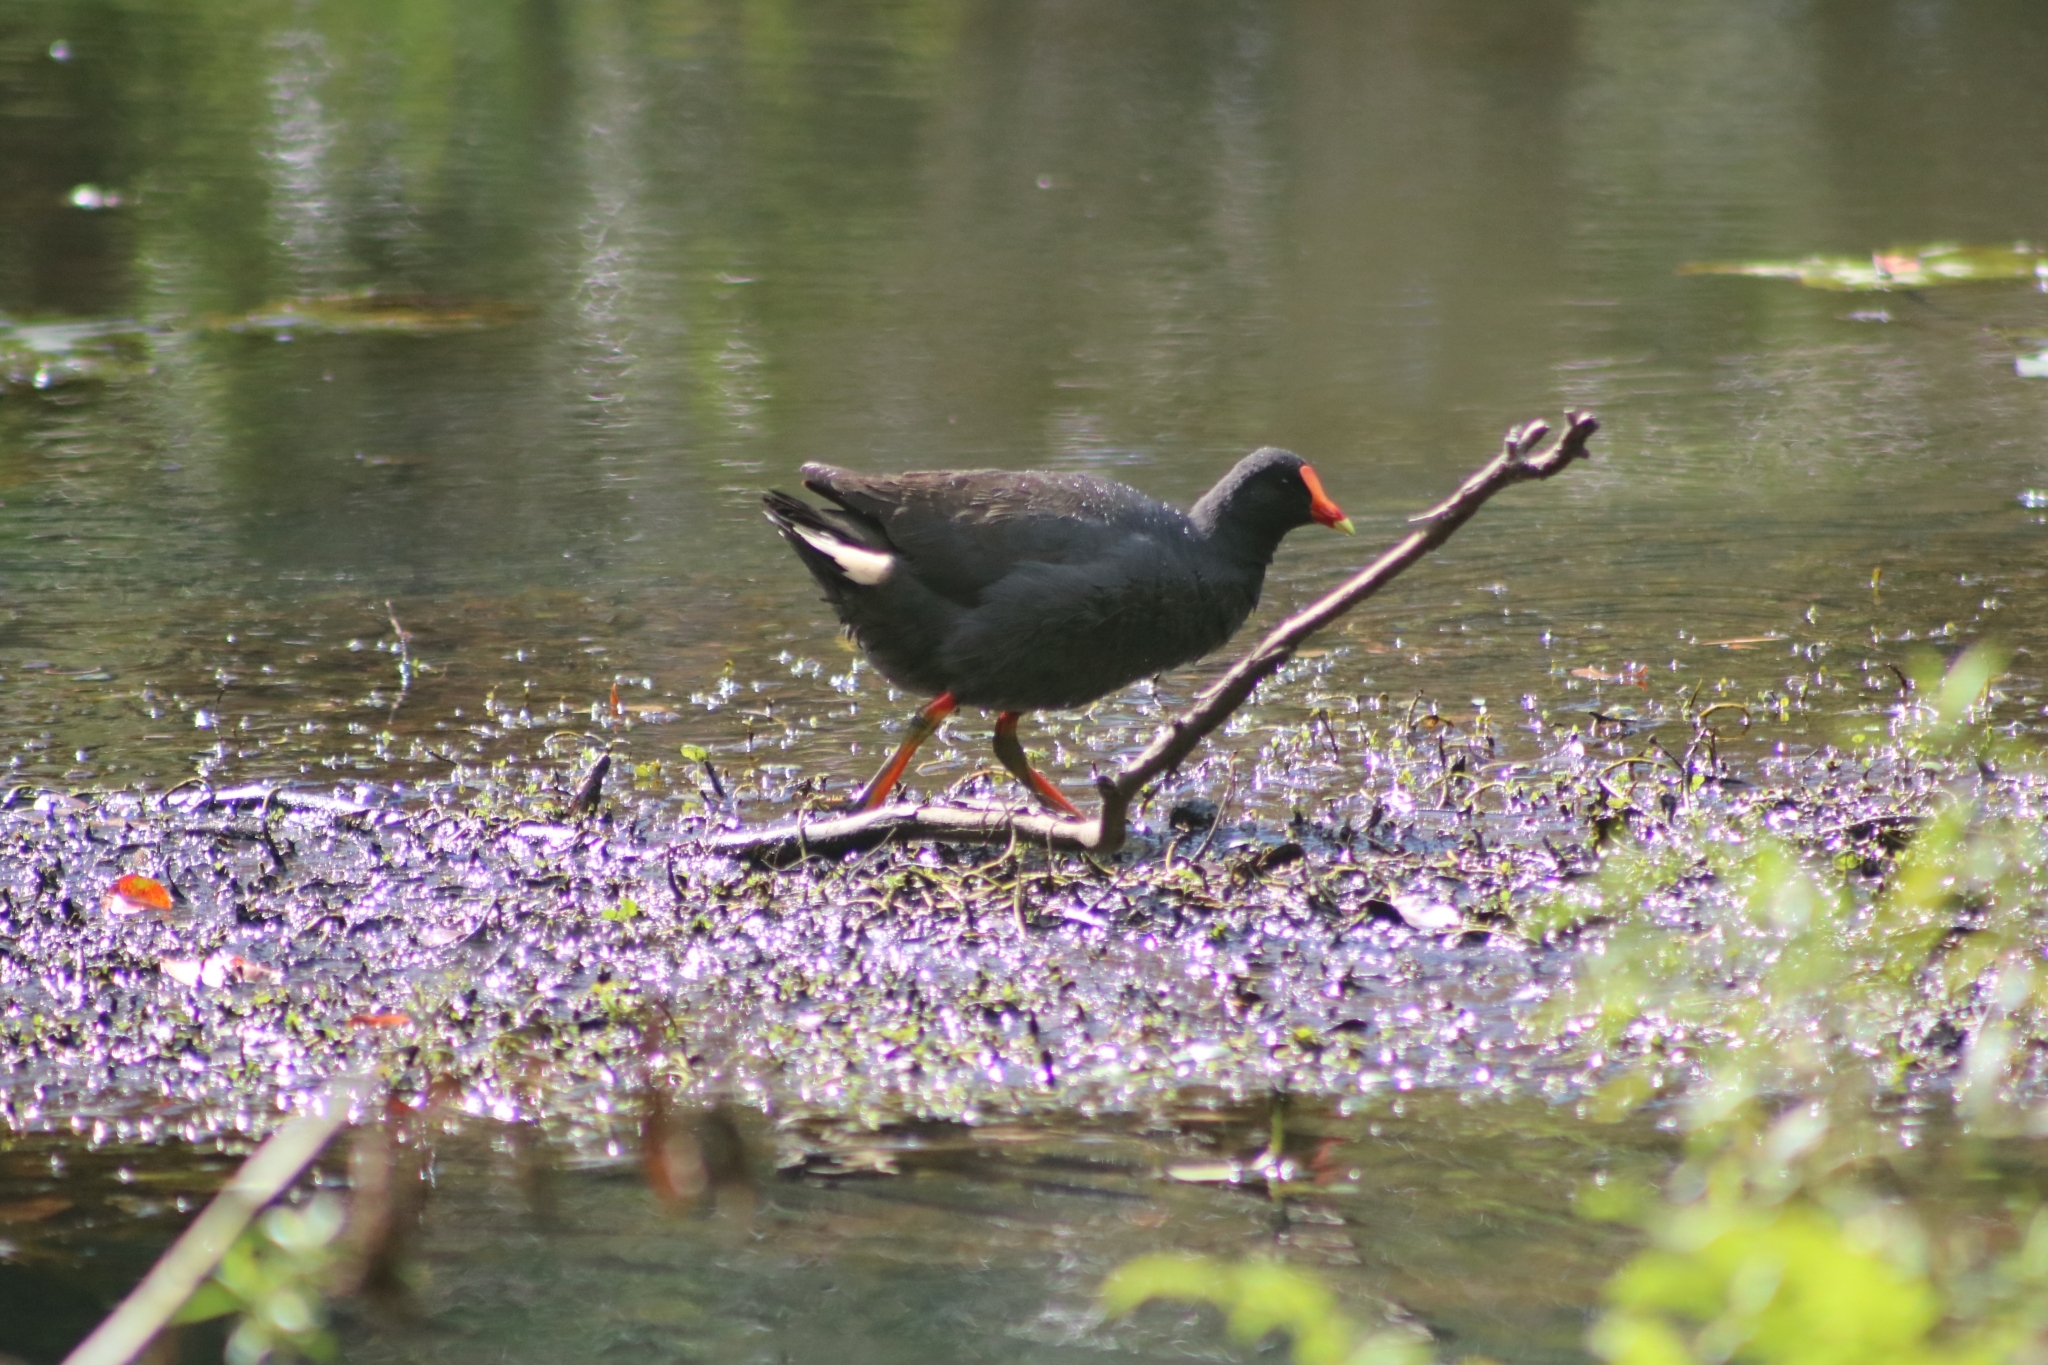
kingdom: Animalia
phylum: Chordata
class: Aves
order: Gruiformes
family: Rallidae
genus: Gallinula
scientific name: Gallinula tenebrosa
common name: Dusky moorhen
